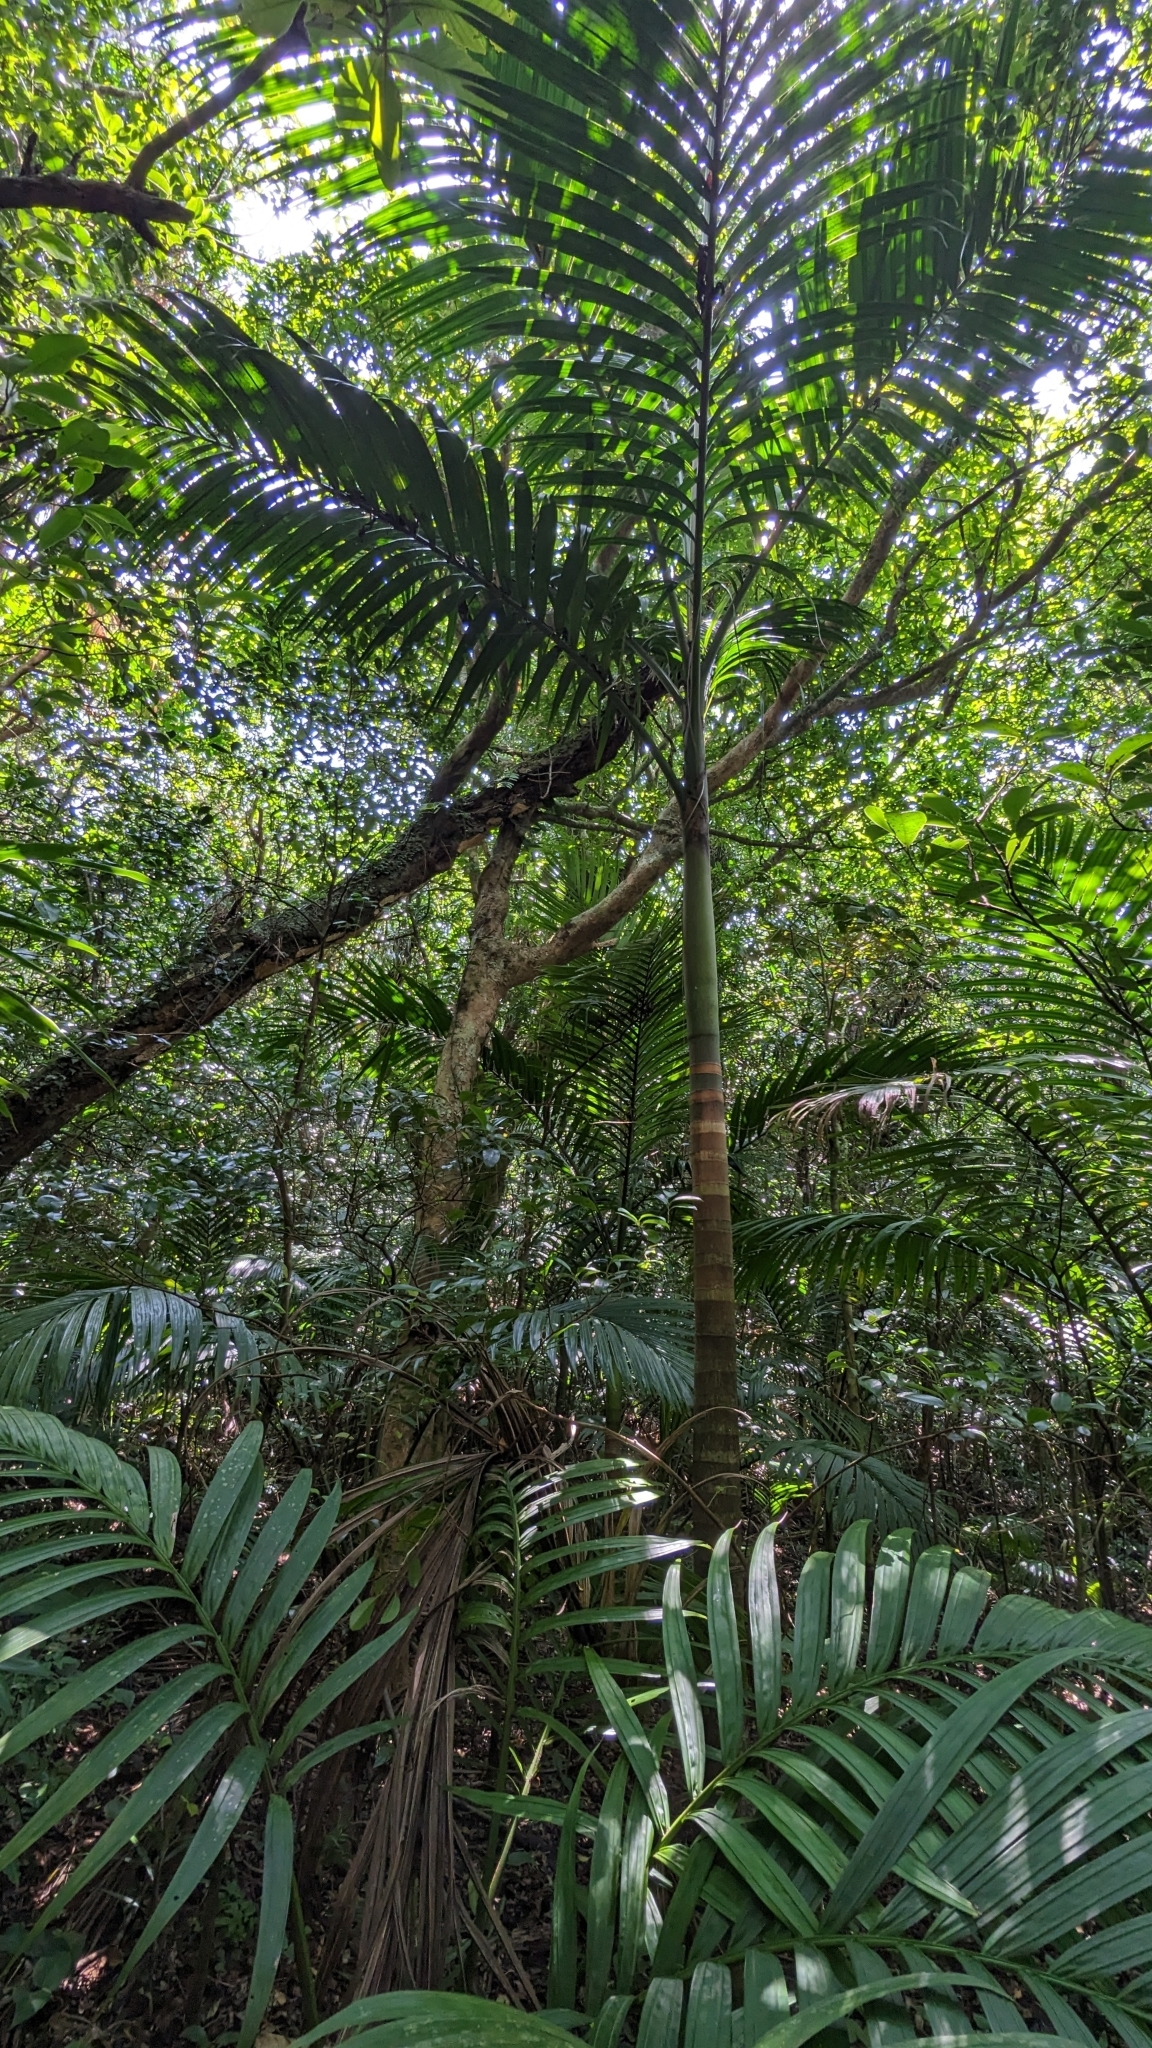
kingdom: Plantae
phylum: Tracheophyta
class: Liliopsida
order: Arecales
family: Arecaceae
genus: Pinanga
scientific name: Pinanga tashiroi
